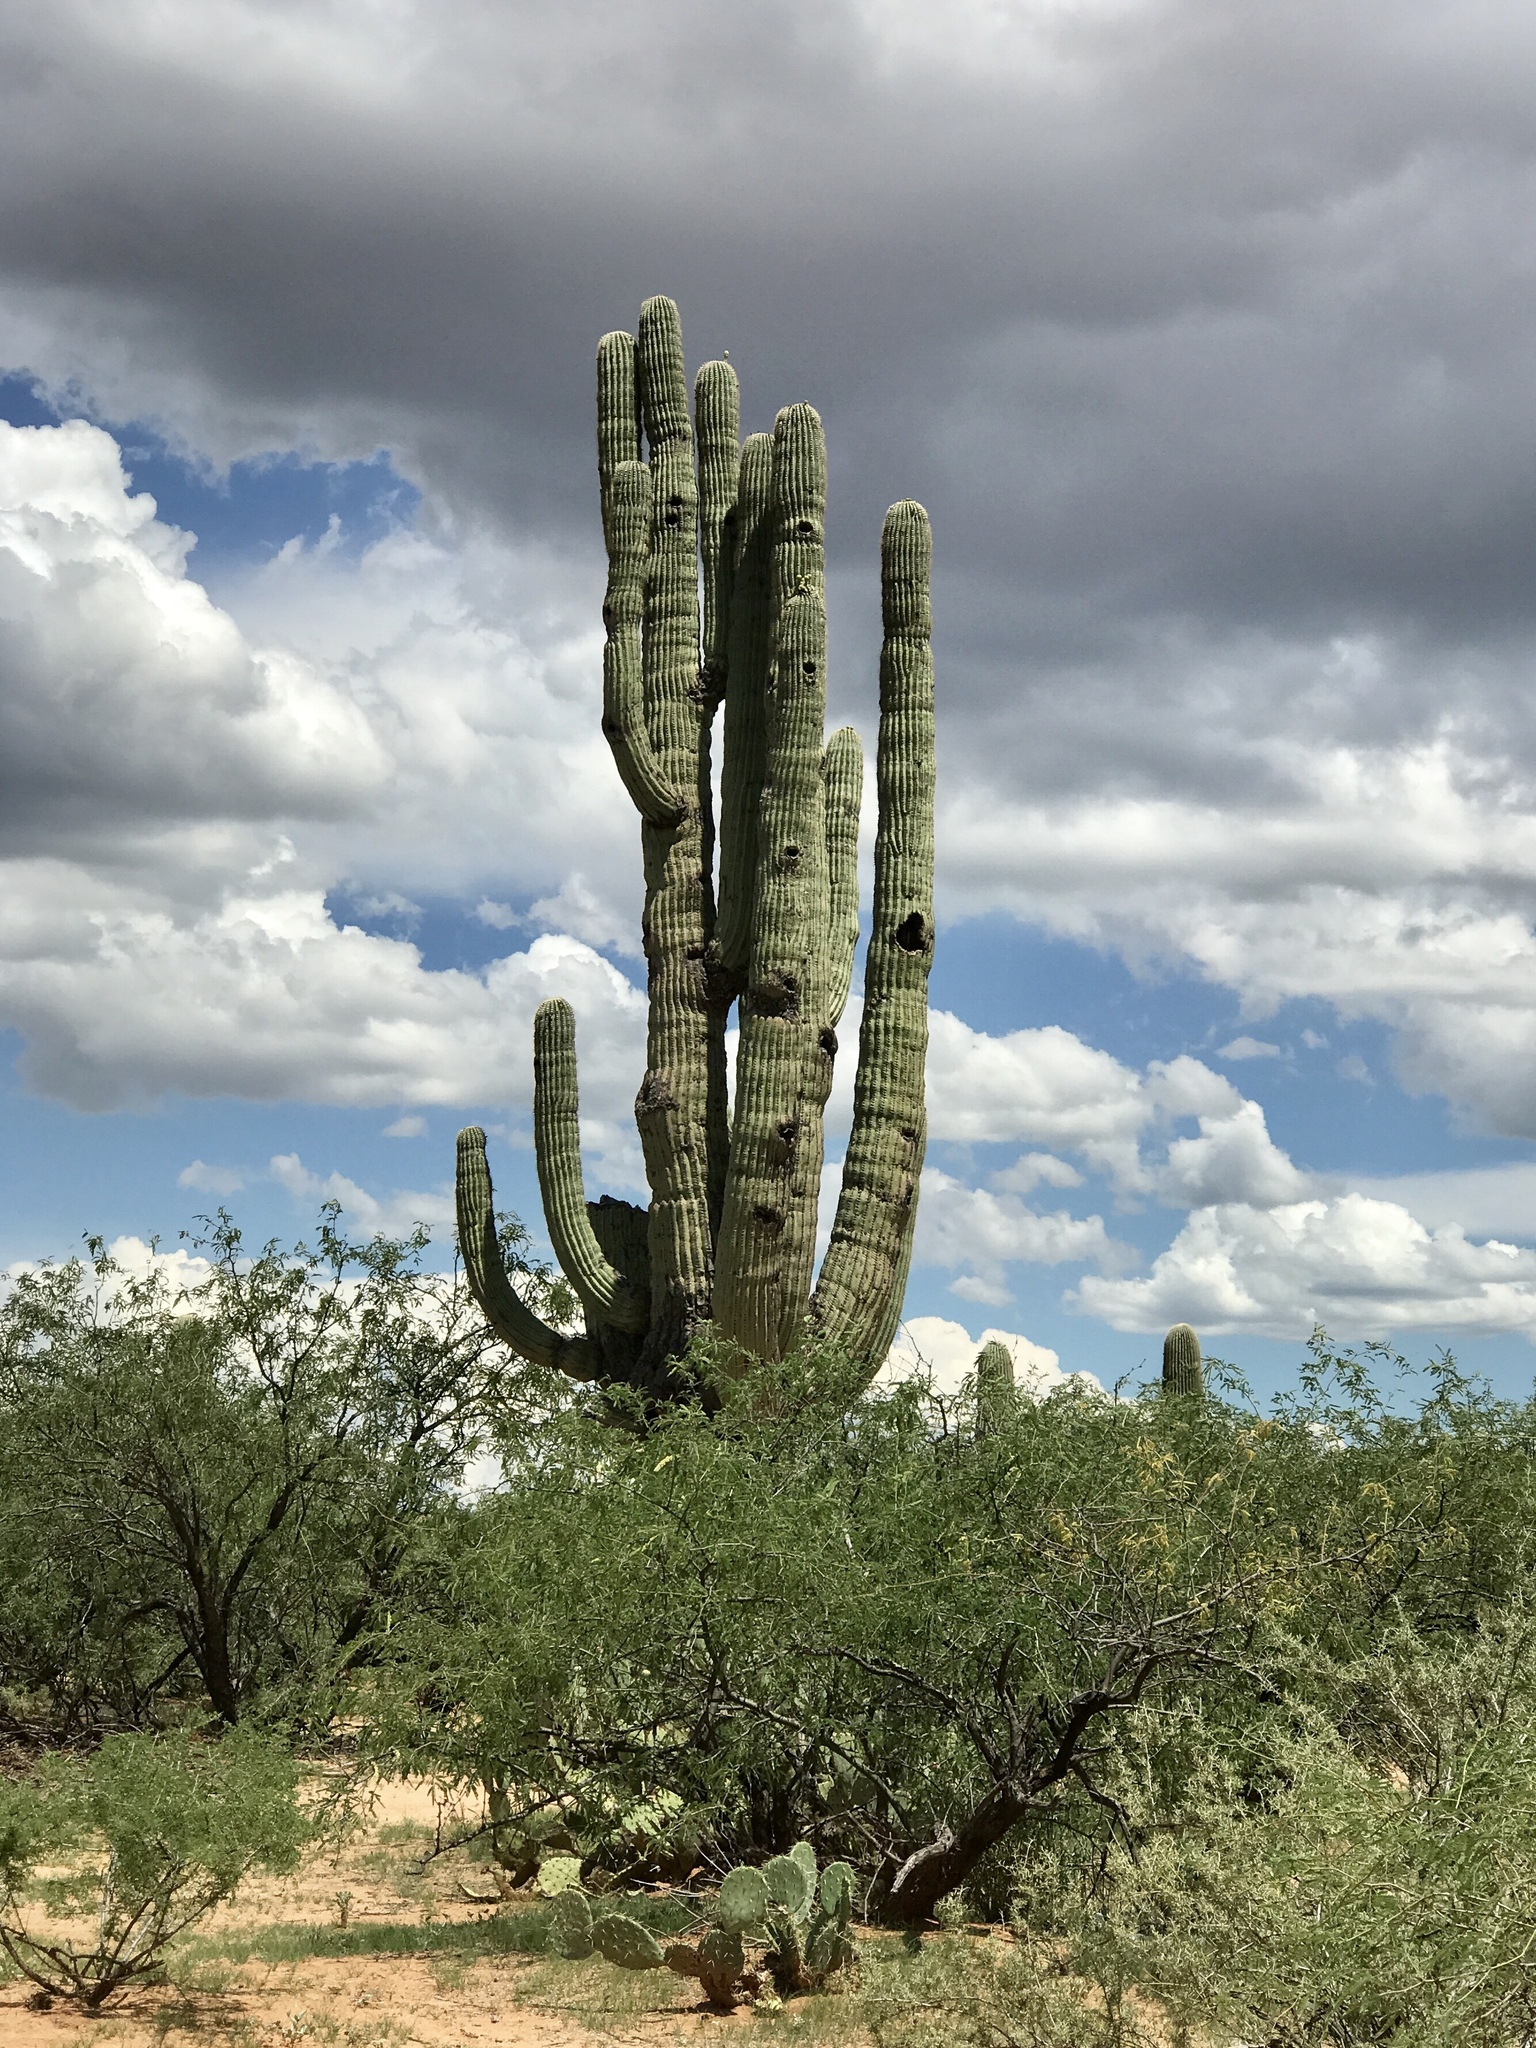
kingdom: Plantae
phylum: Tracheophyta
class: Magnoliopsida
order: Caryophyllales
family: Cactaceae
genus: Carnegiea
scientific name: Carnegiea gigantea
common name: Saguaro
